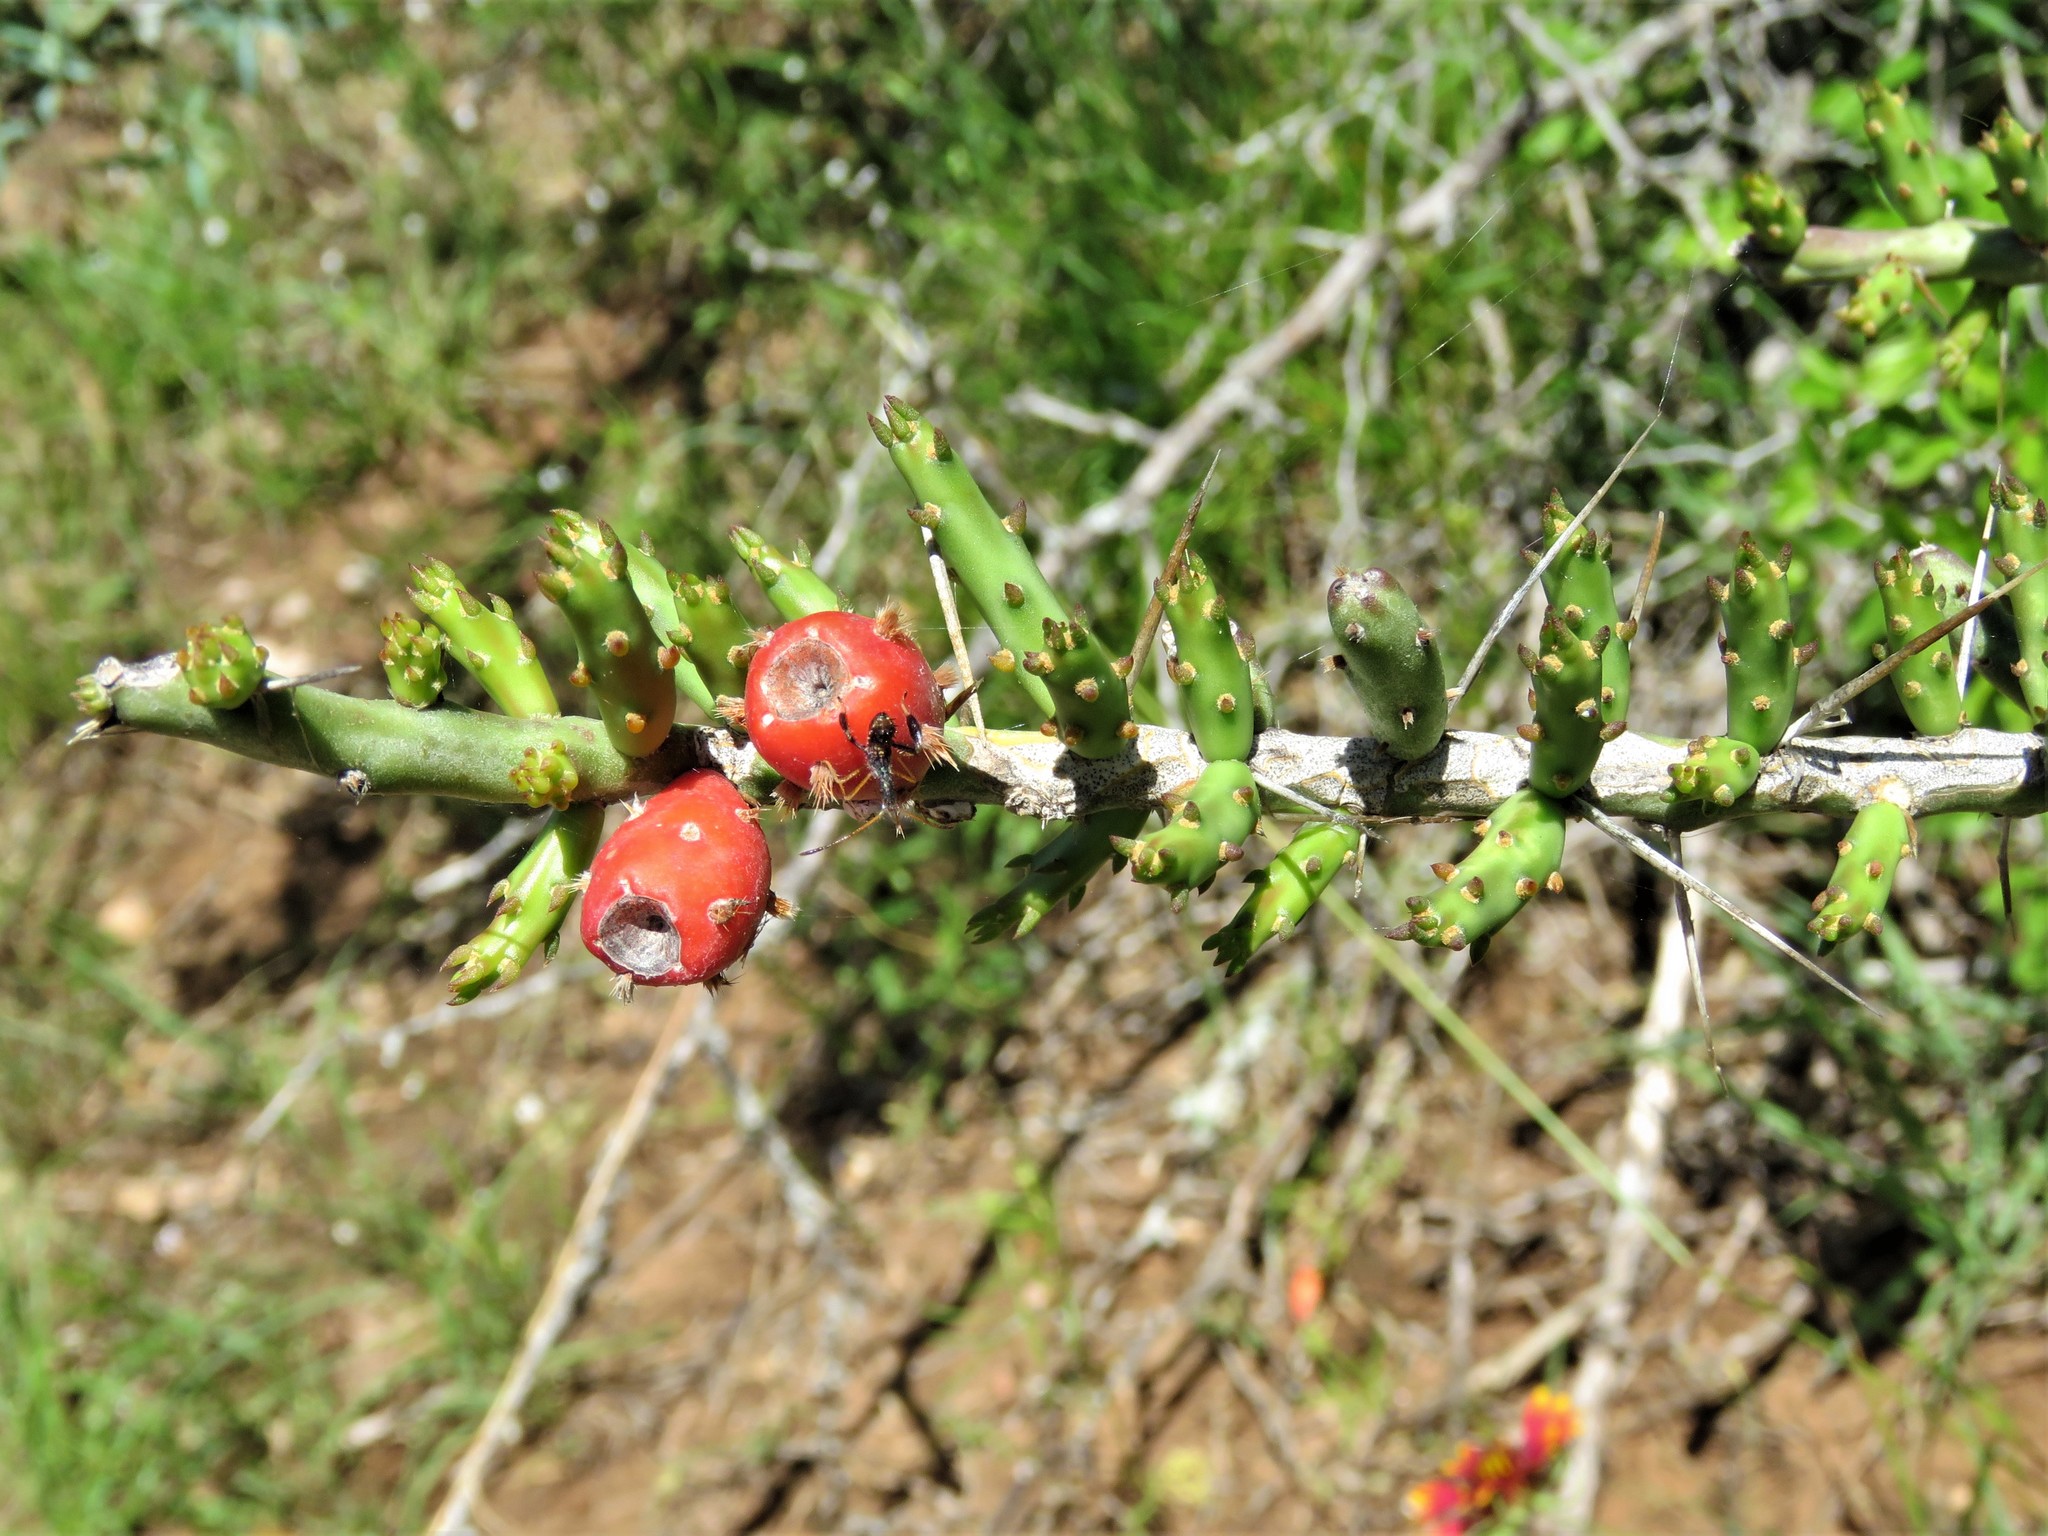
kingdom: Plantae
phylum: Tracheophyta
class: Magnoliopsida
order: Caryophyllales
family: Cactaceae
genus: Cylindropuntia
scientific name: Cylindropuntia leptocaulis
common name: Christmas cactus
